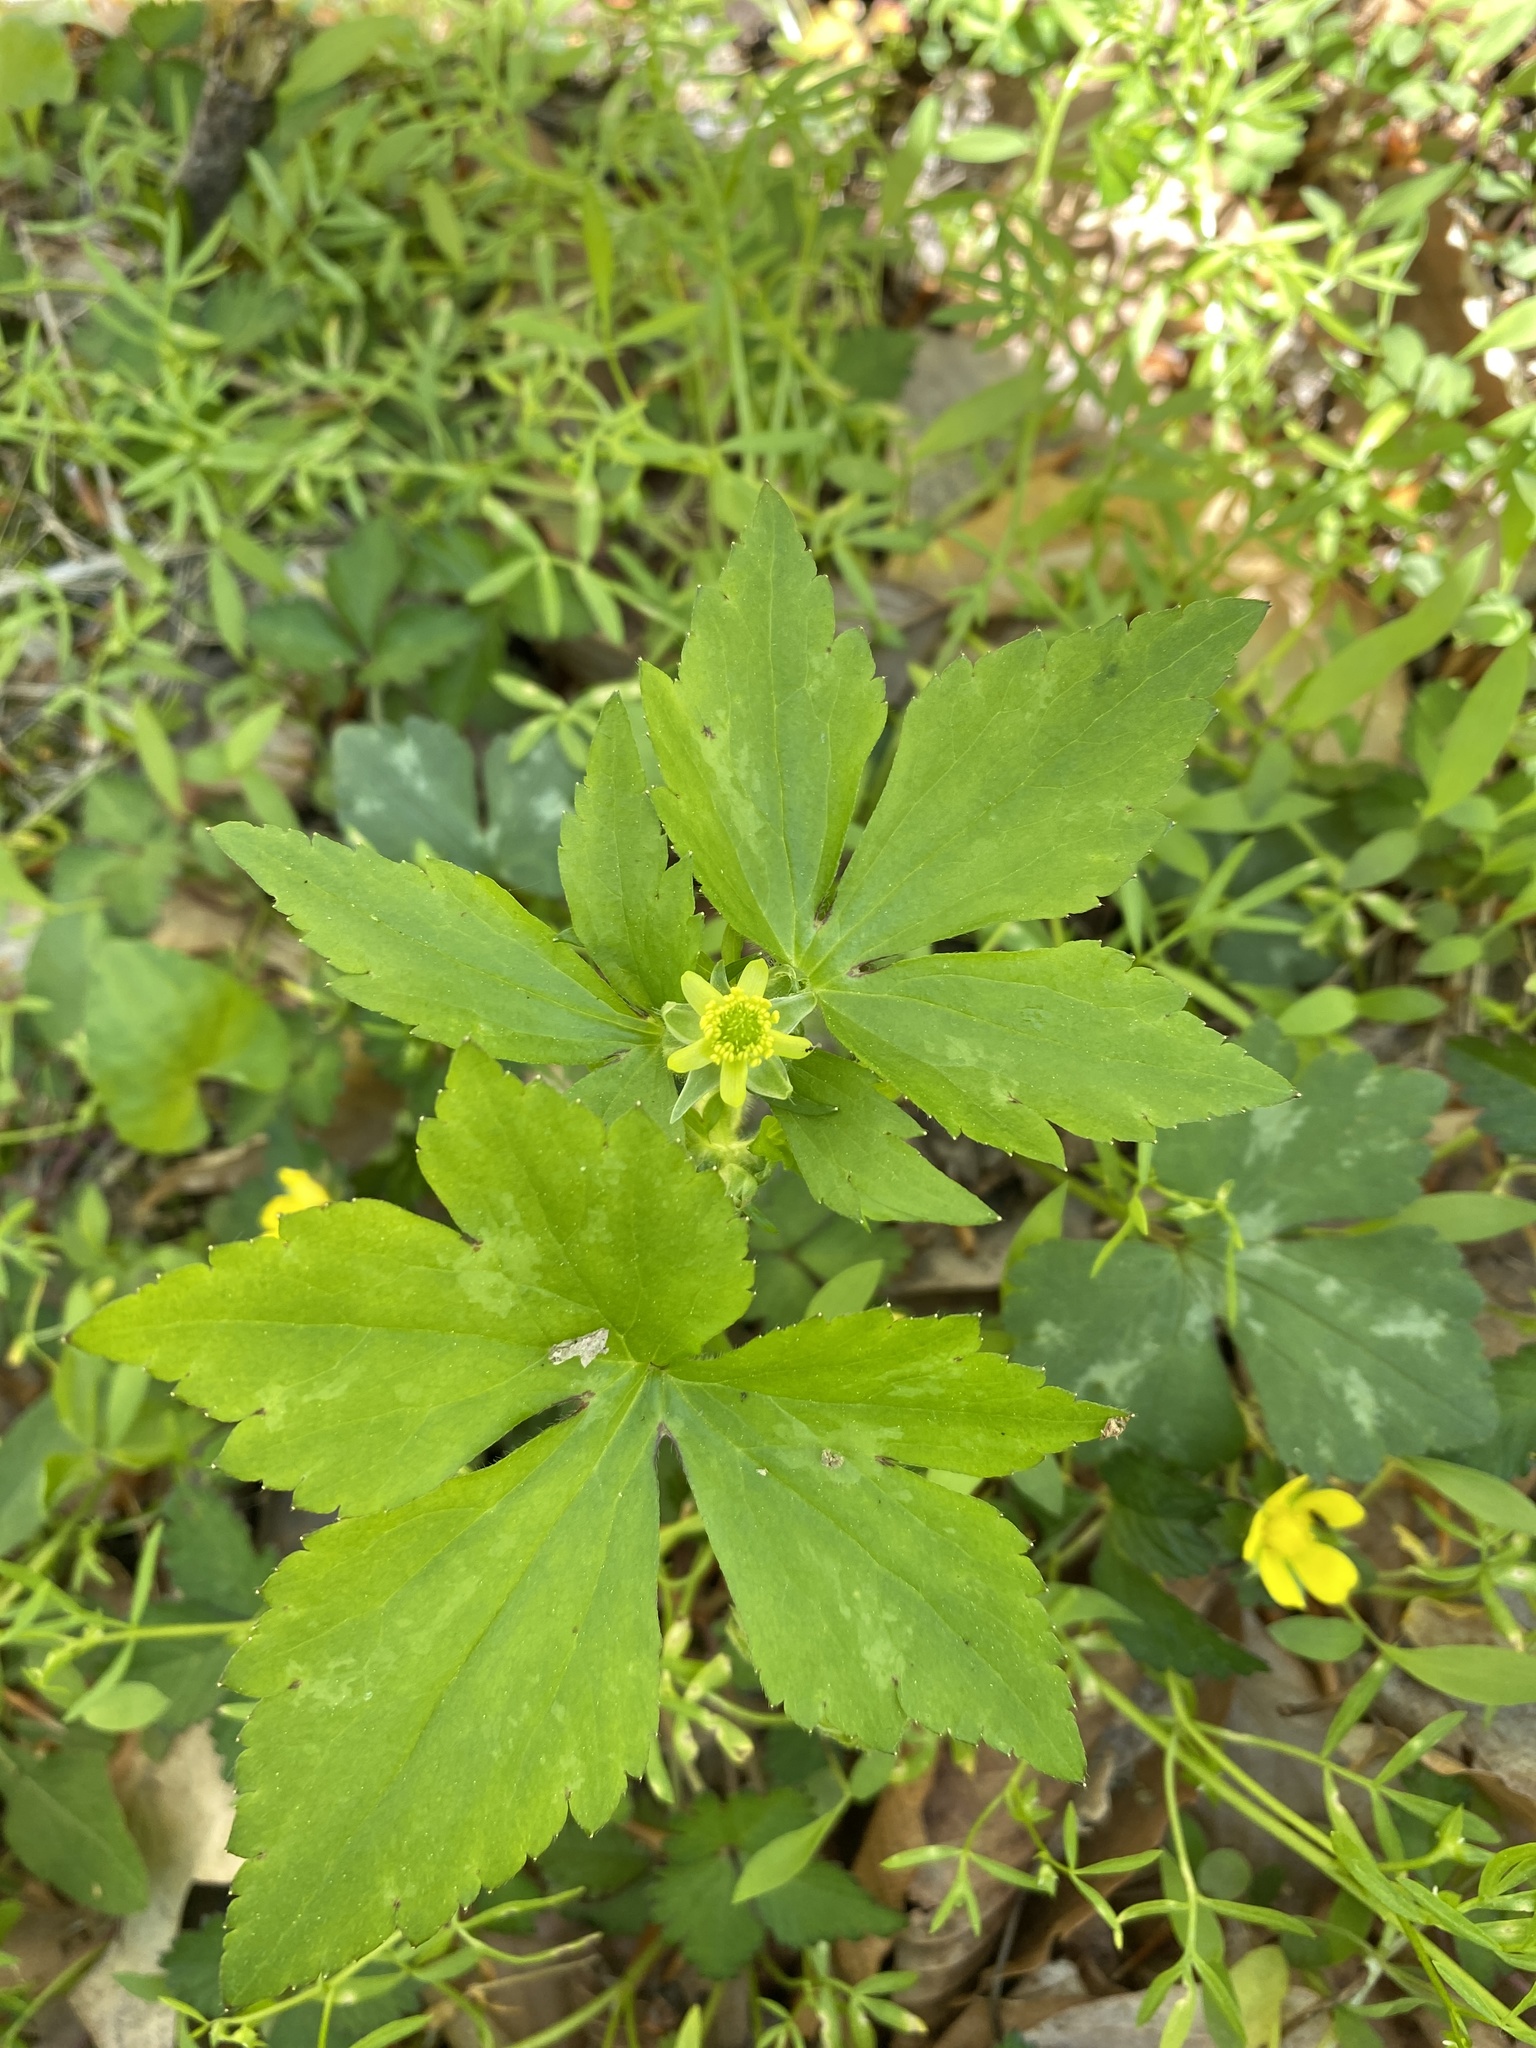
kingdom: Plantae
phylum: Tracheophyta
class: Magnoliopsida
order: Ranunculales
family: Ranunculaceae
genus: Ranunculus
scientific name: Ranunculus recurvatus
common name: Blisterwort
